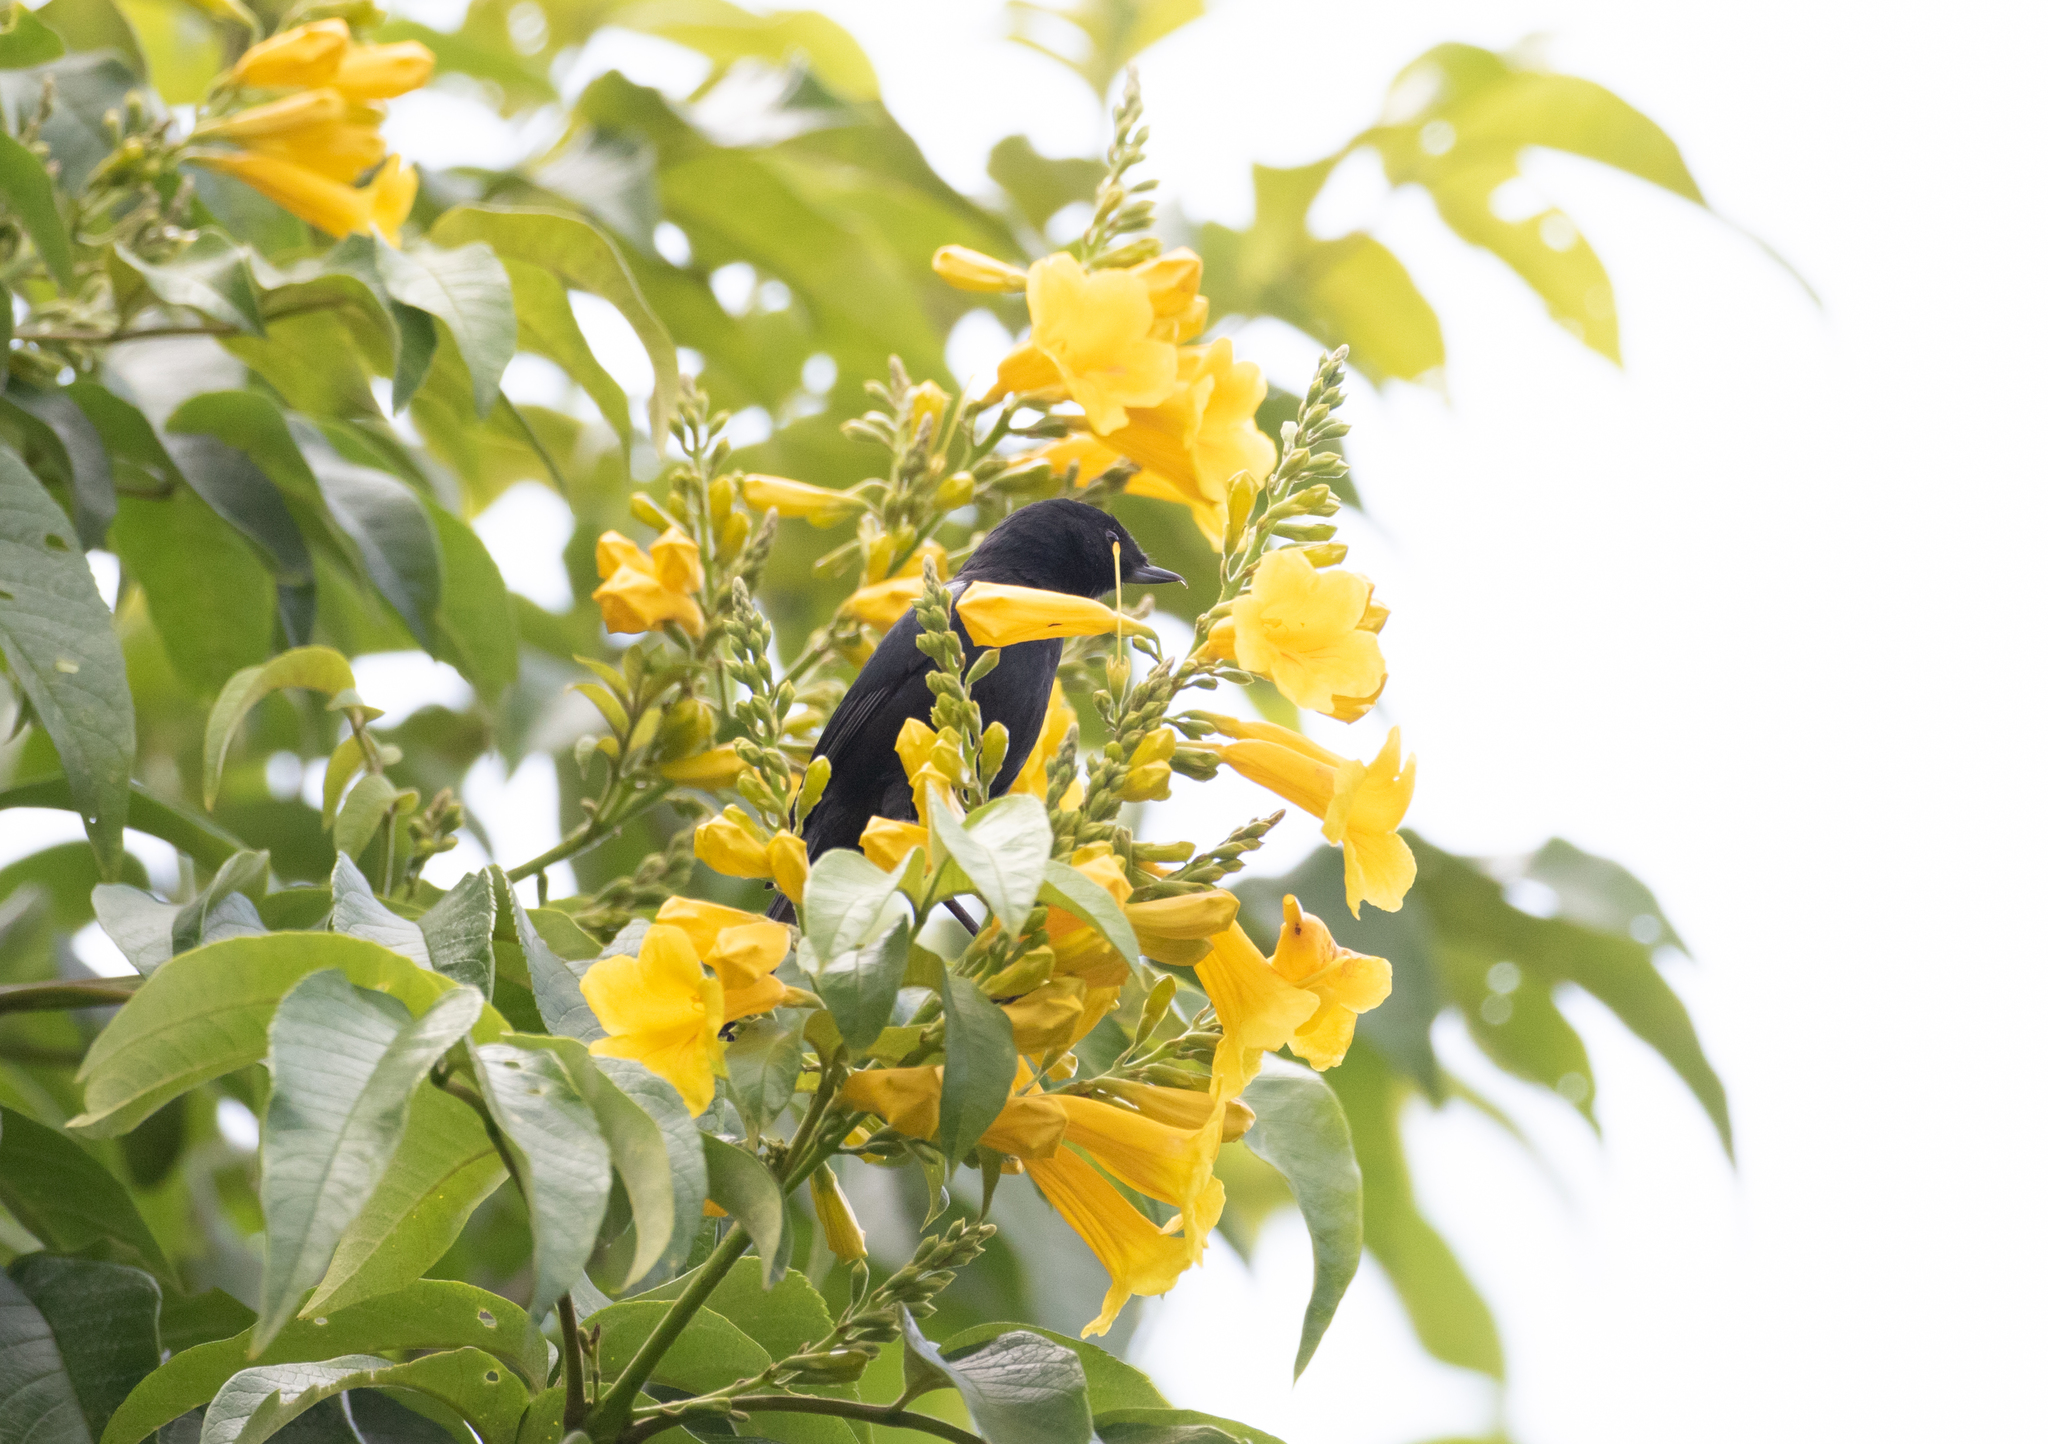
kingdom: Animalia
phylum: Chordata
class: Aves
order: Passeriformes
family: Thraupidae
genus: Diglossa
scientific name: Diglossa humeralis
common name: Black flowerpiercer
